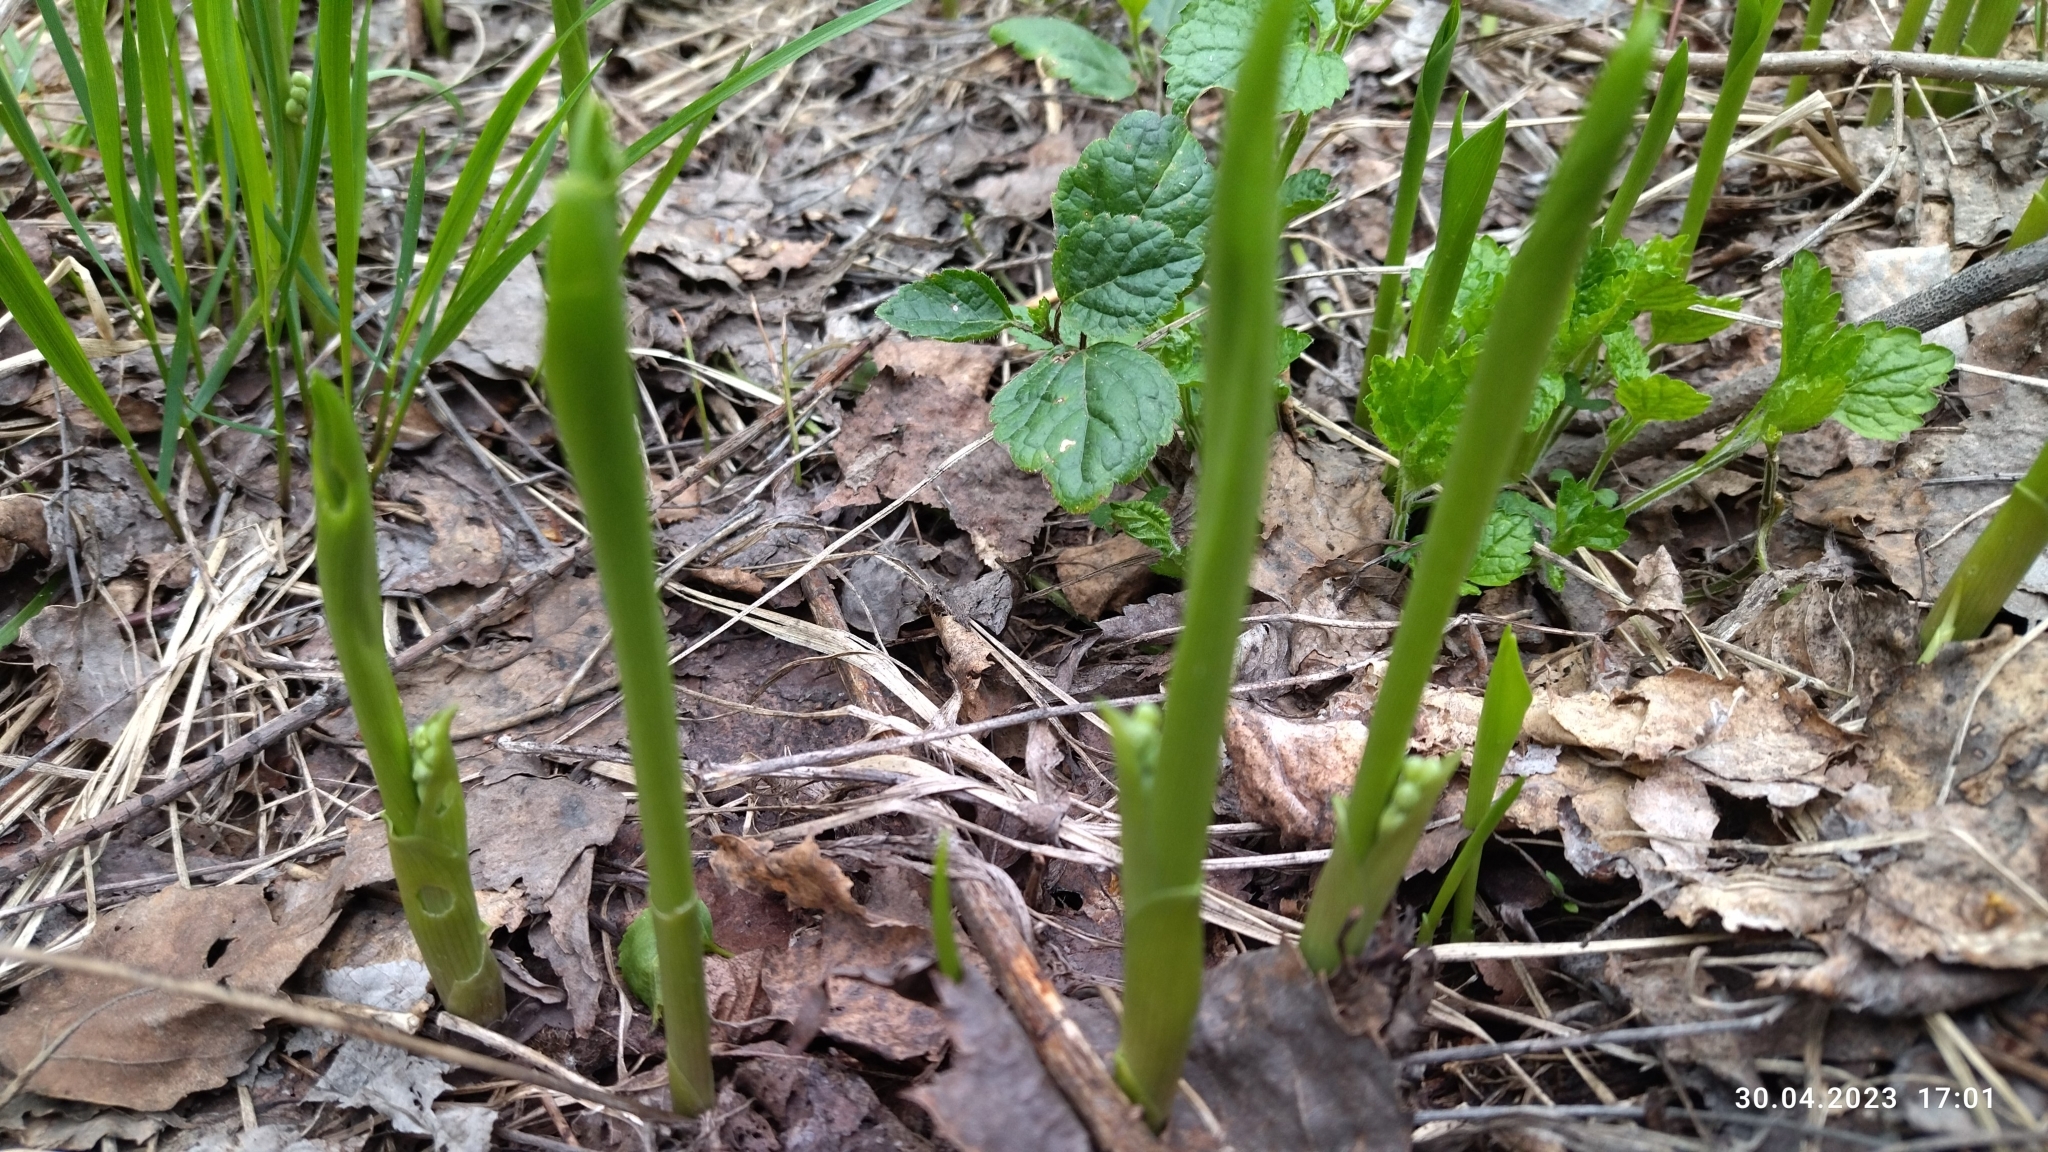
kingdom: Plantae
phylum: Tracheophyta
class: Liliopsida
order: Asparagales
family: Asparagaceae
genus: Convallaria
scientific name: Convallaria majalis
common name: Lily-of-the-valley
